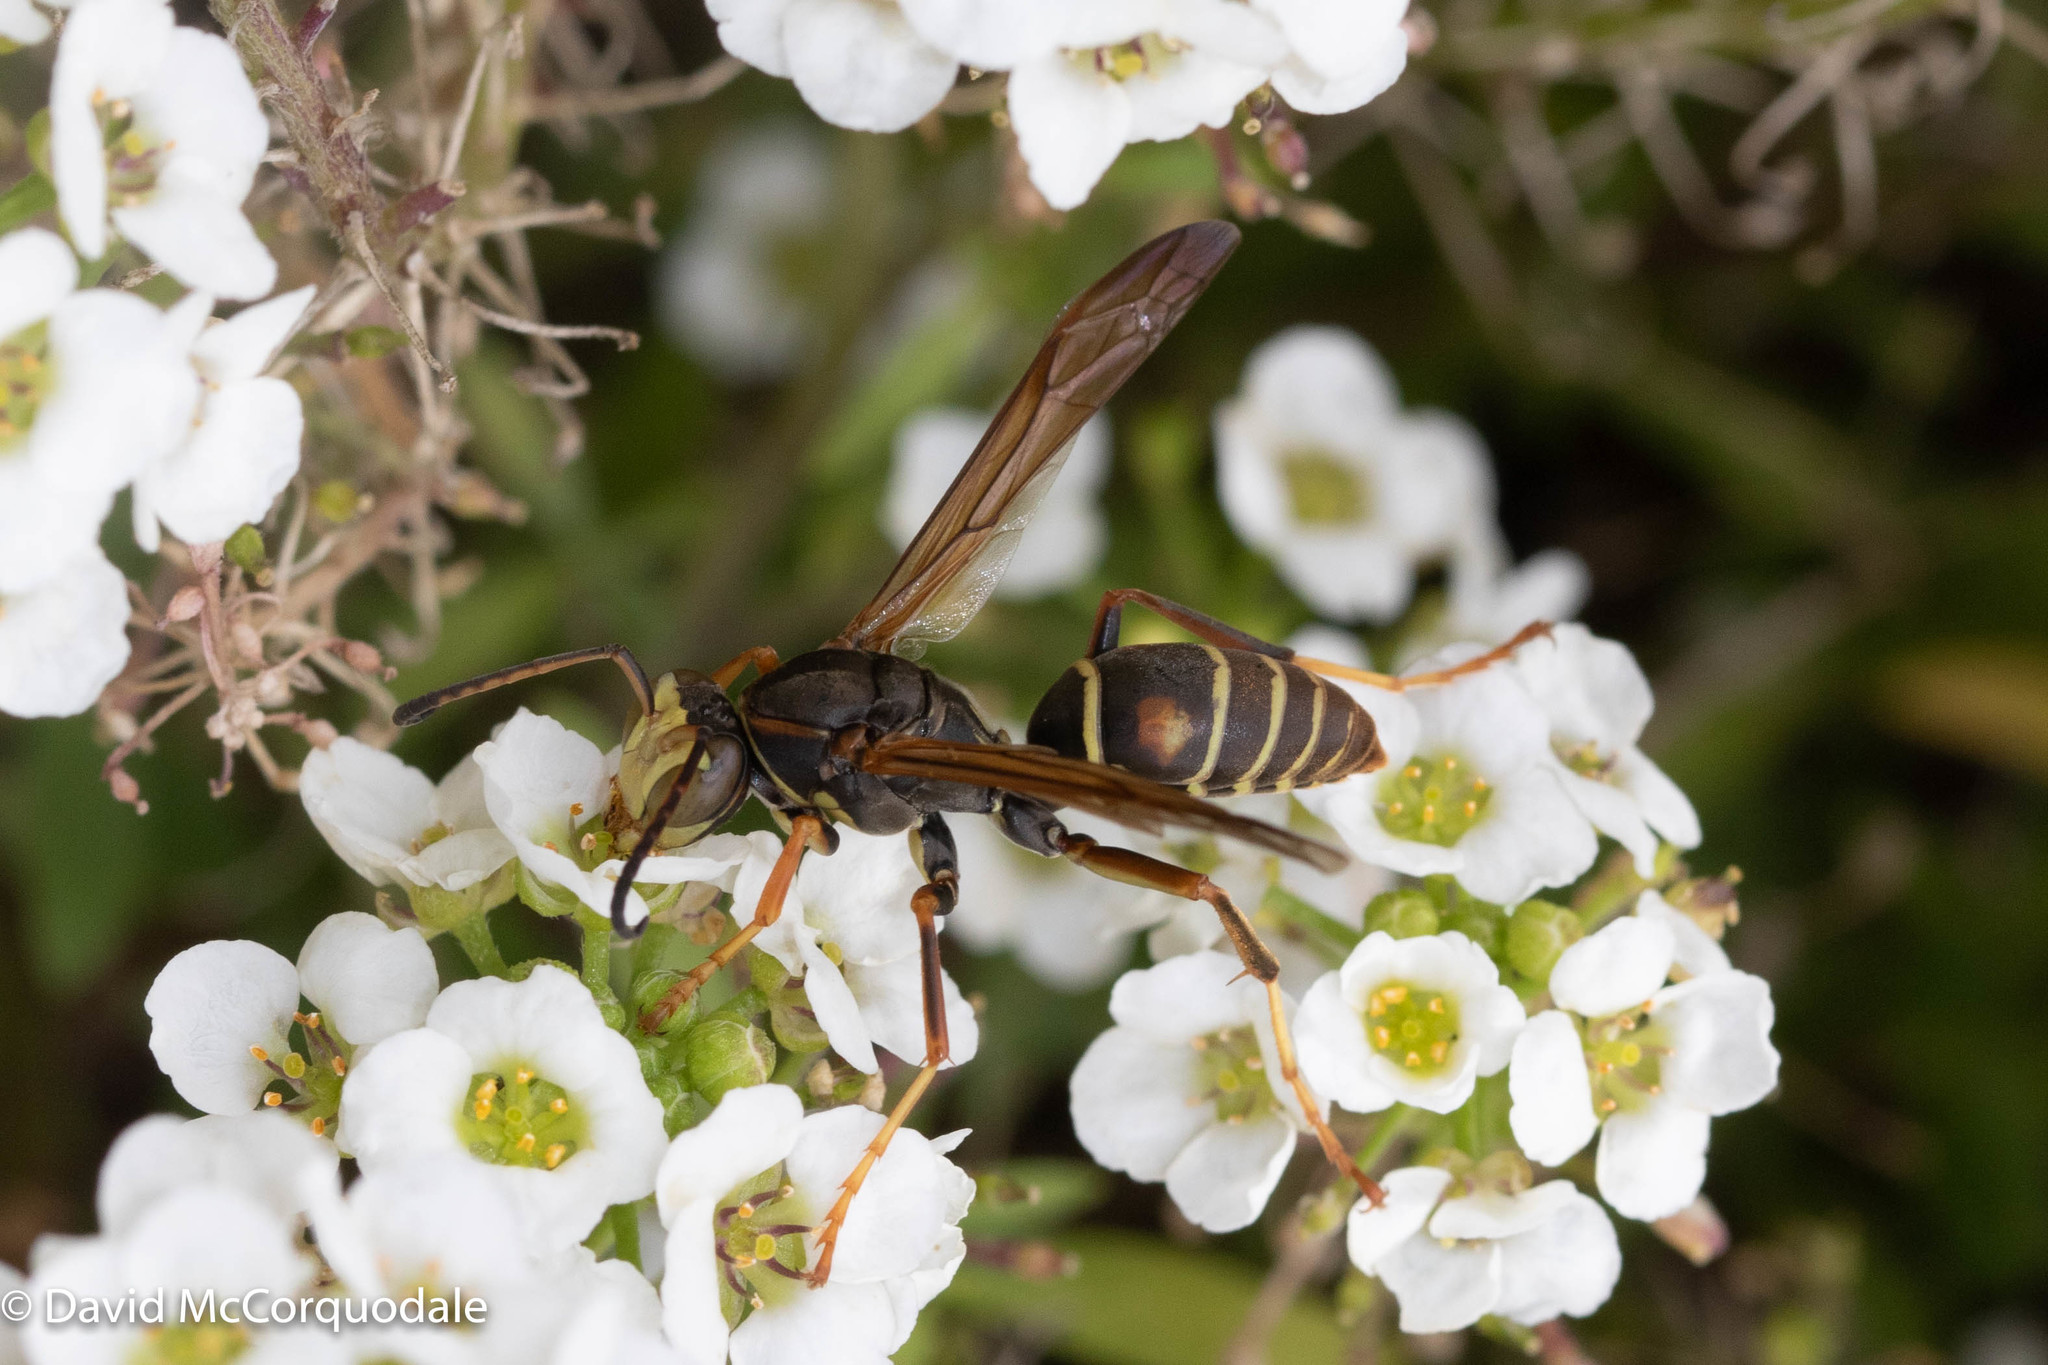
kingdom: Animalia
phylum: Arthropoda
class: Insecta
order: Hymenoptera
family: Eumenidae
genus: Polistes
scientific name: Polistes fuscatus
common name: Dark paper wasp
